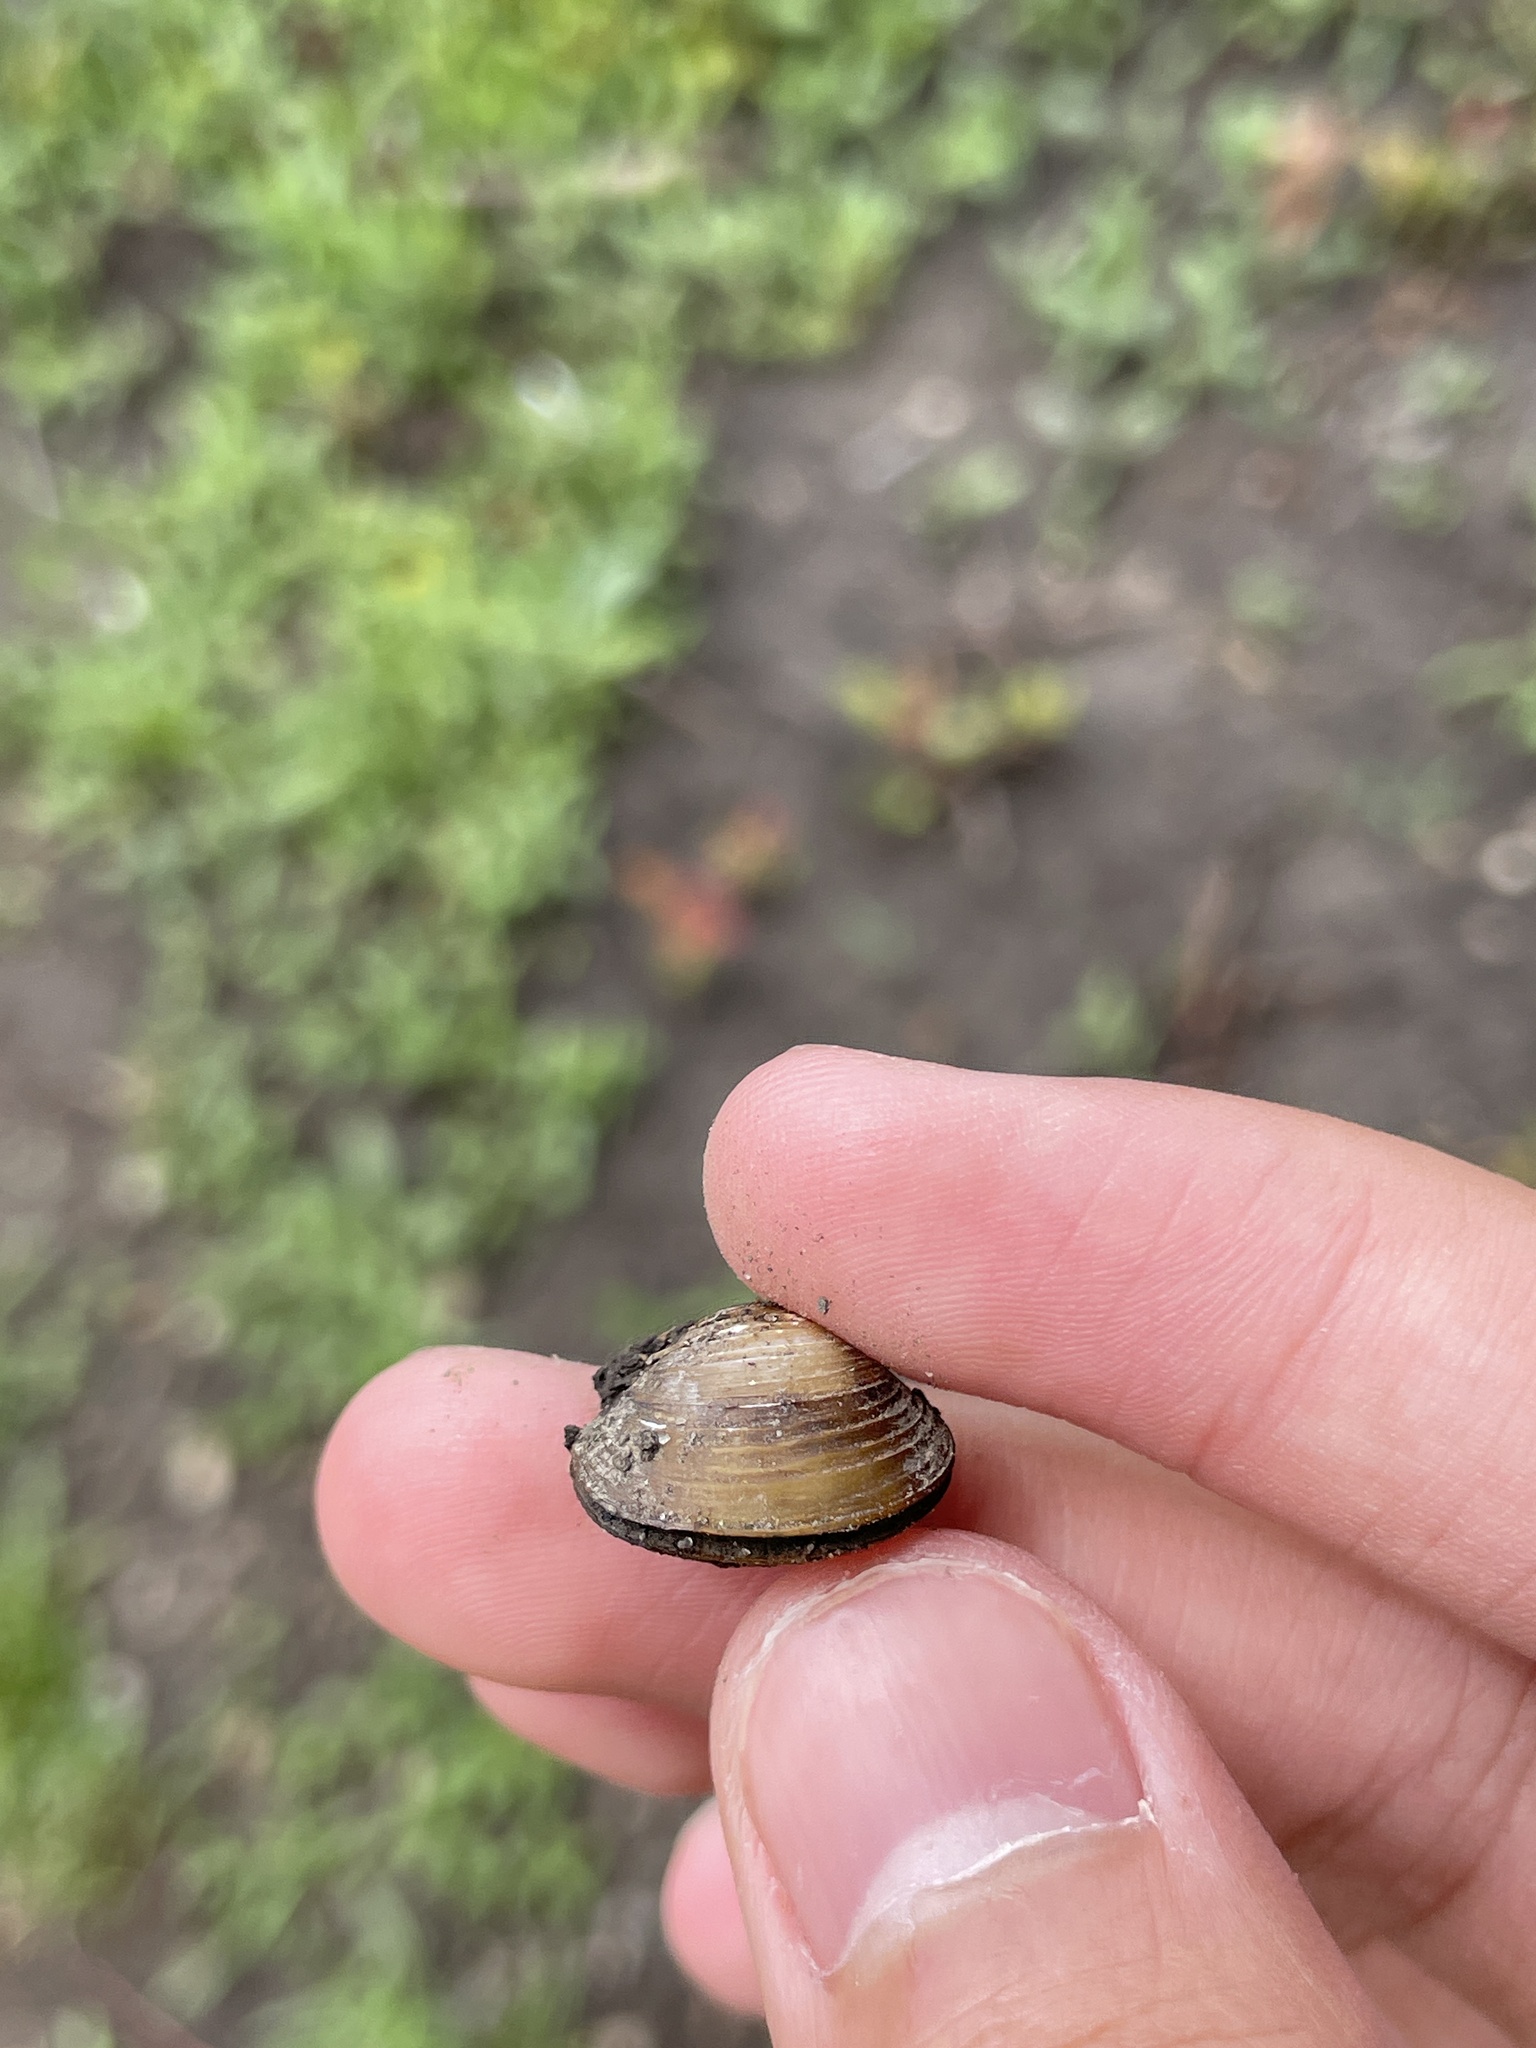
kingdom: Animalia
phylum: Mollusca
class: Bivalvia
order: Venerida
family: Cyrenidae
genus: Corbicula
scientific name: Corbicula fluminea
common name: Asian clam
